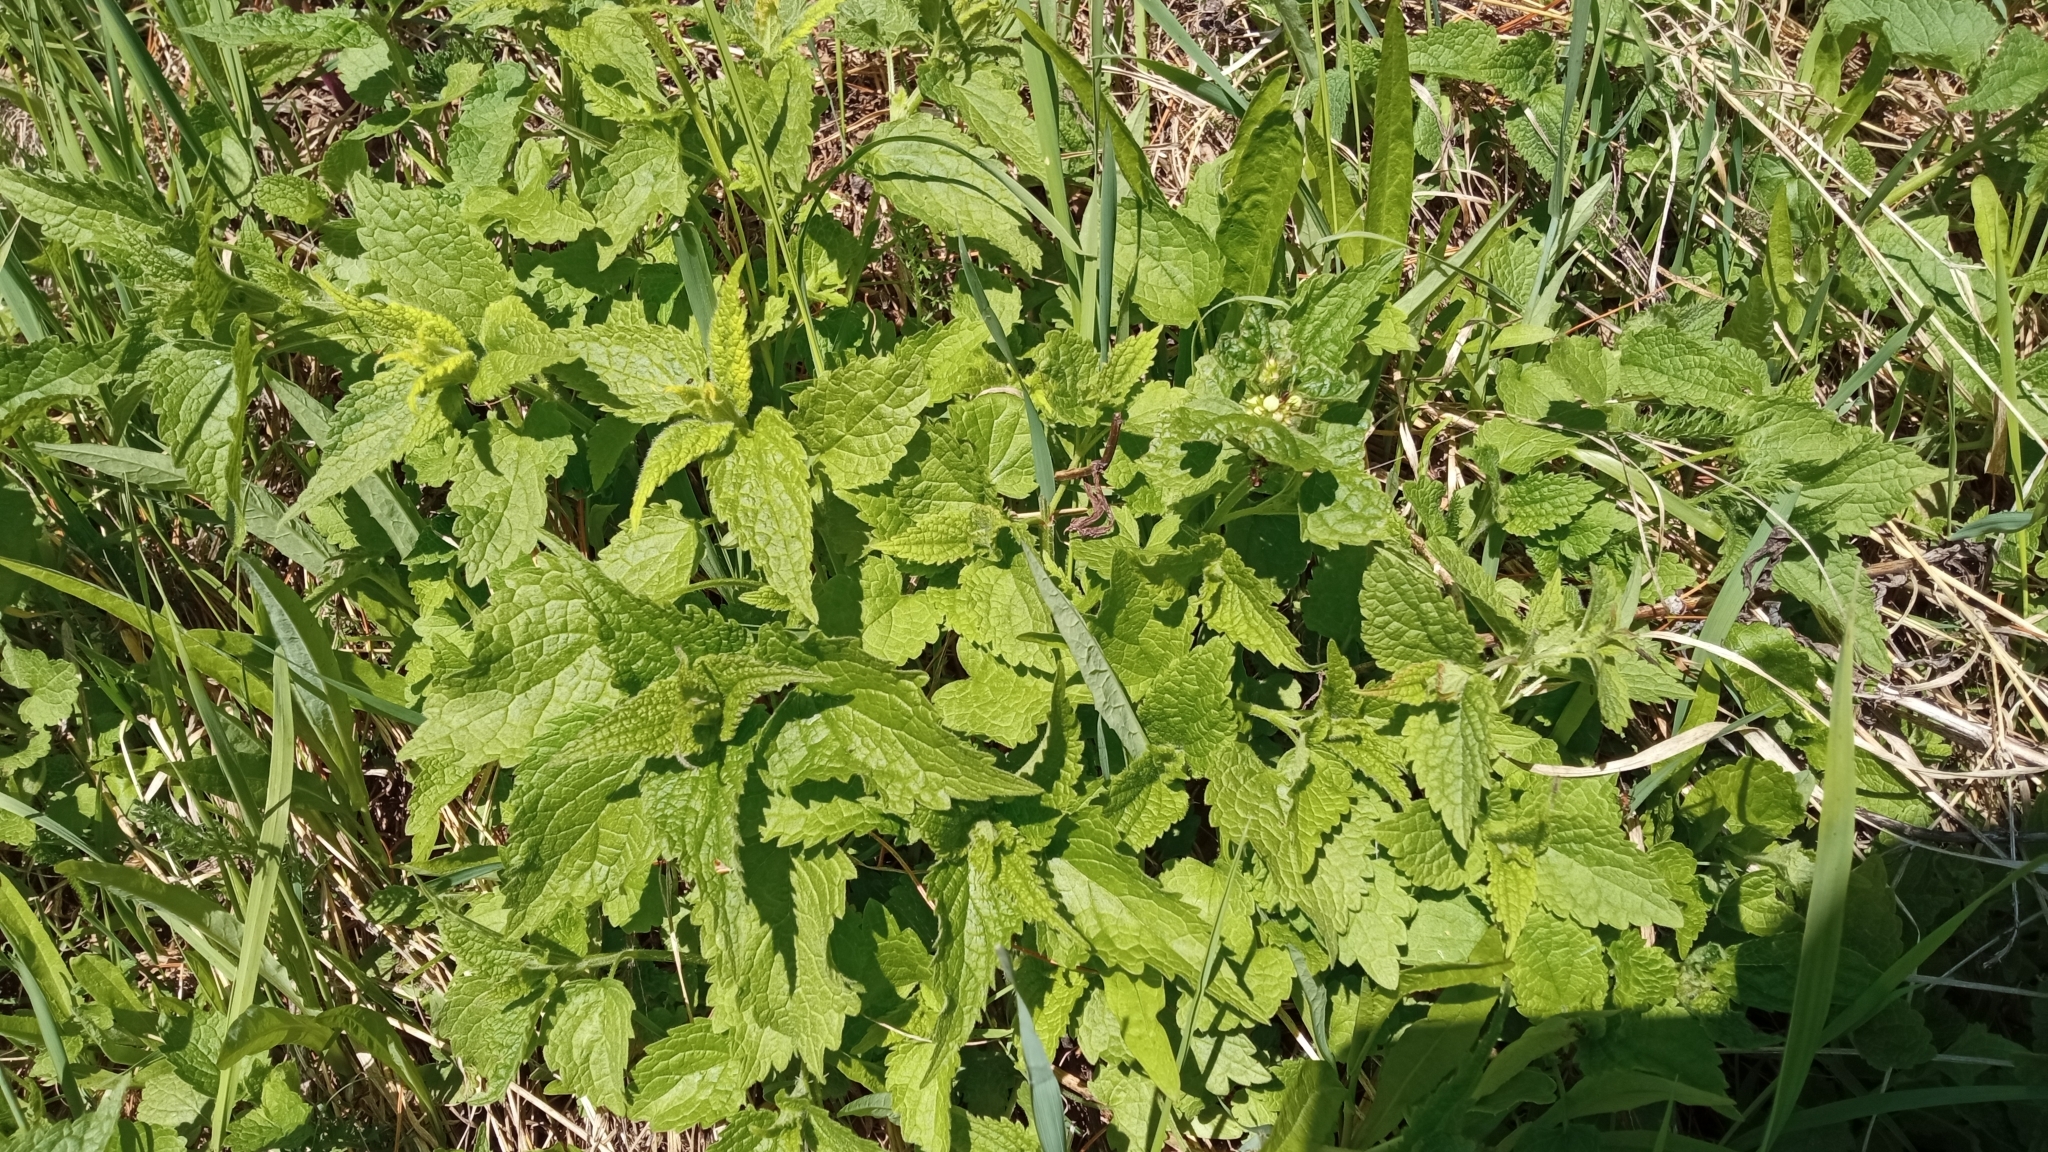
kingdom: Plantae
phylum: Tracheophyta
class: Magnoliopsida
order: Lamiales
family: Lamiaceae
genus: Lamium
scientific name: Lamium album
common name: White dead-nettle
